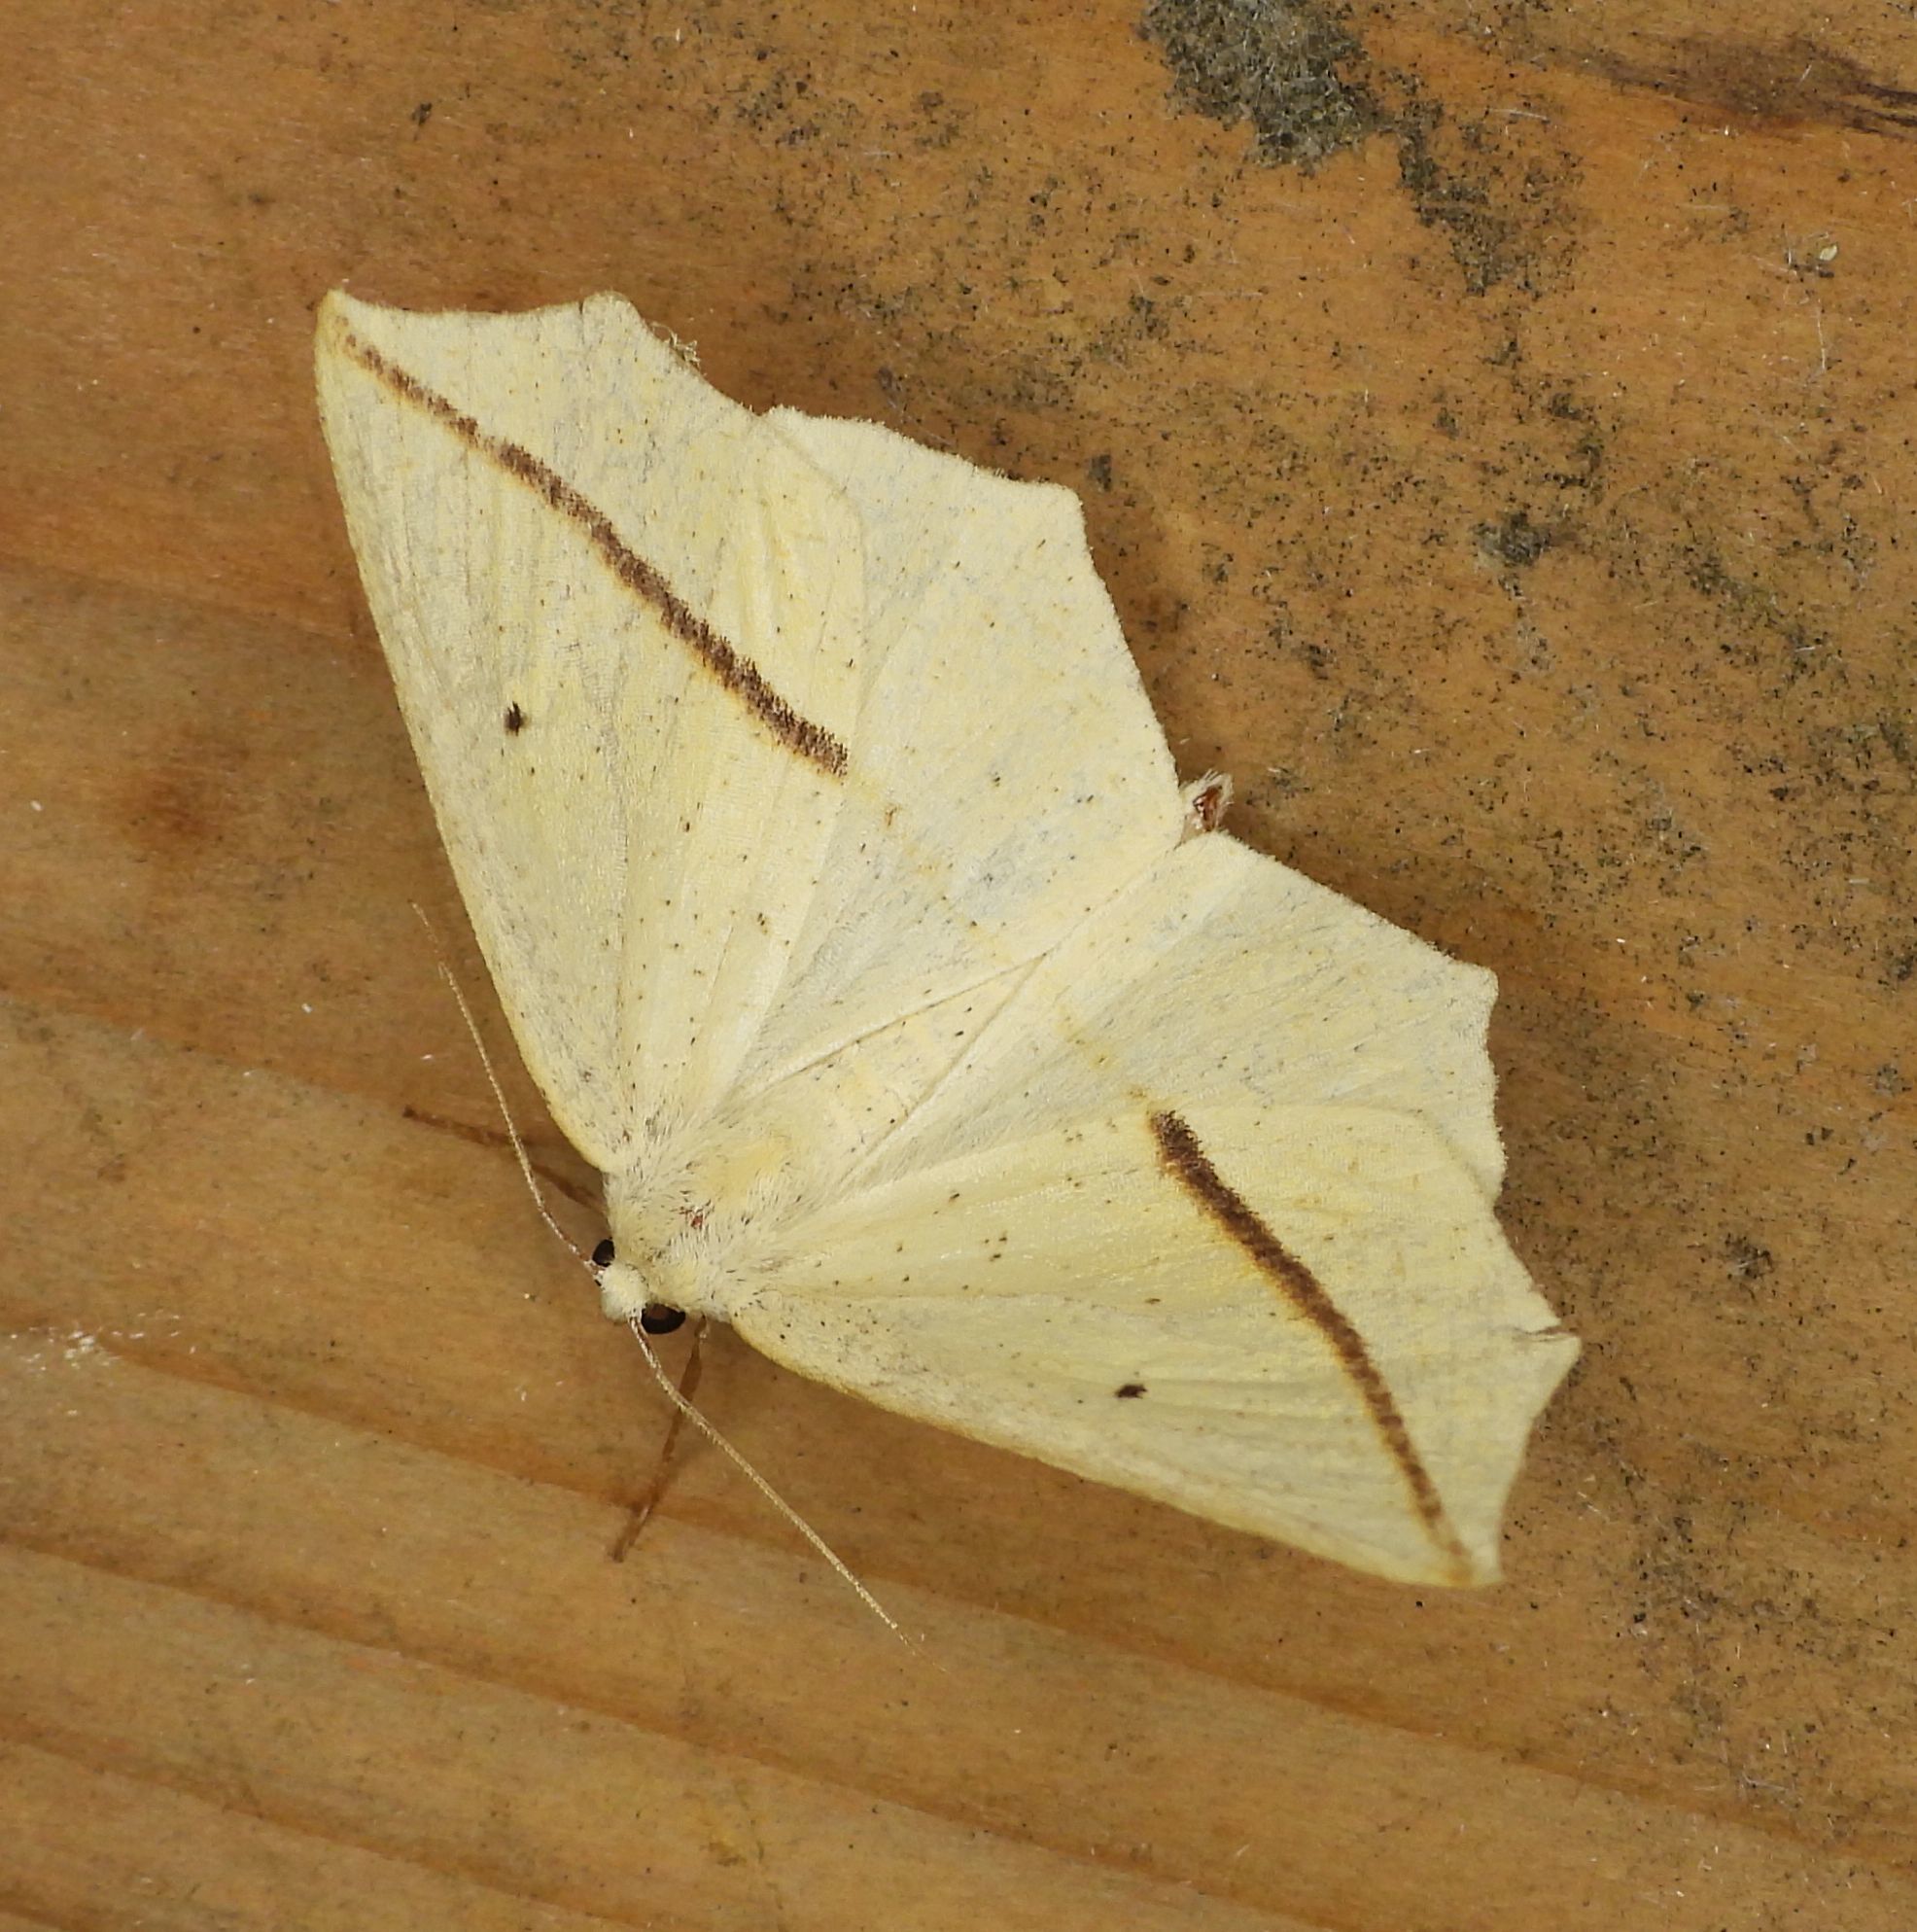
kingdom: Animalia
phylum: Arthropoda
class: Insecta
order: Lepidoptera
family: Geometridae
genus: Tetracis
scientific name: Tetracis crocallata
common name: Yellow slant-line
